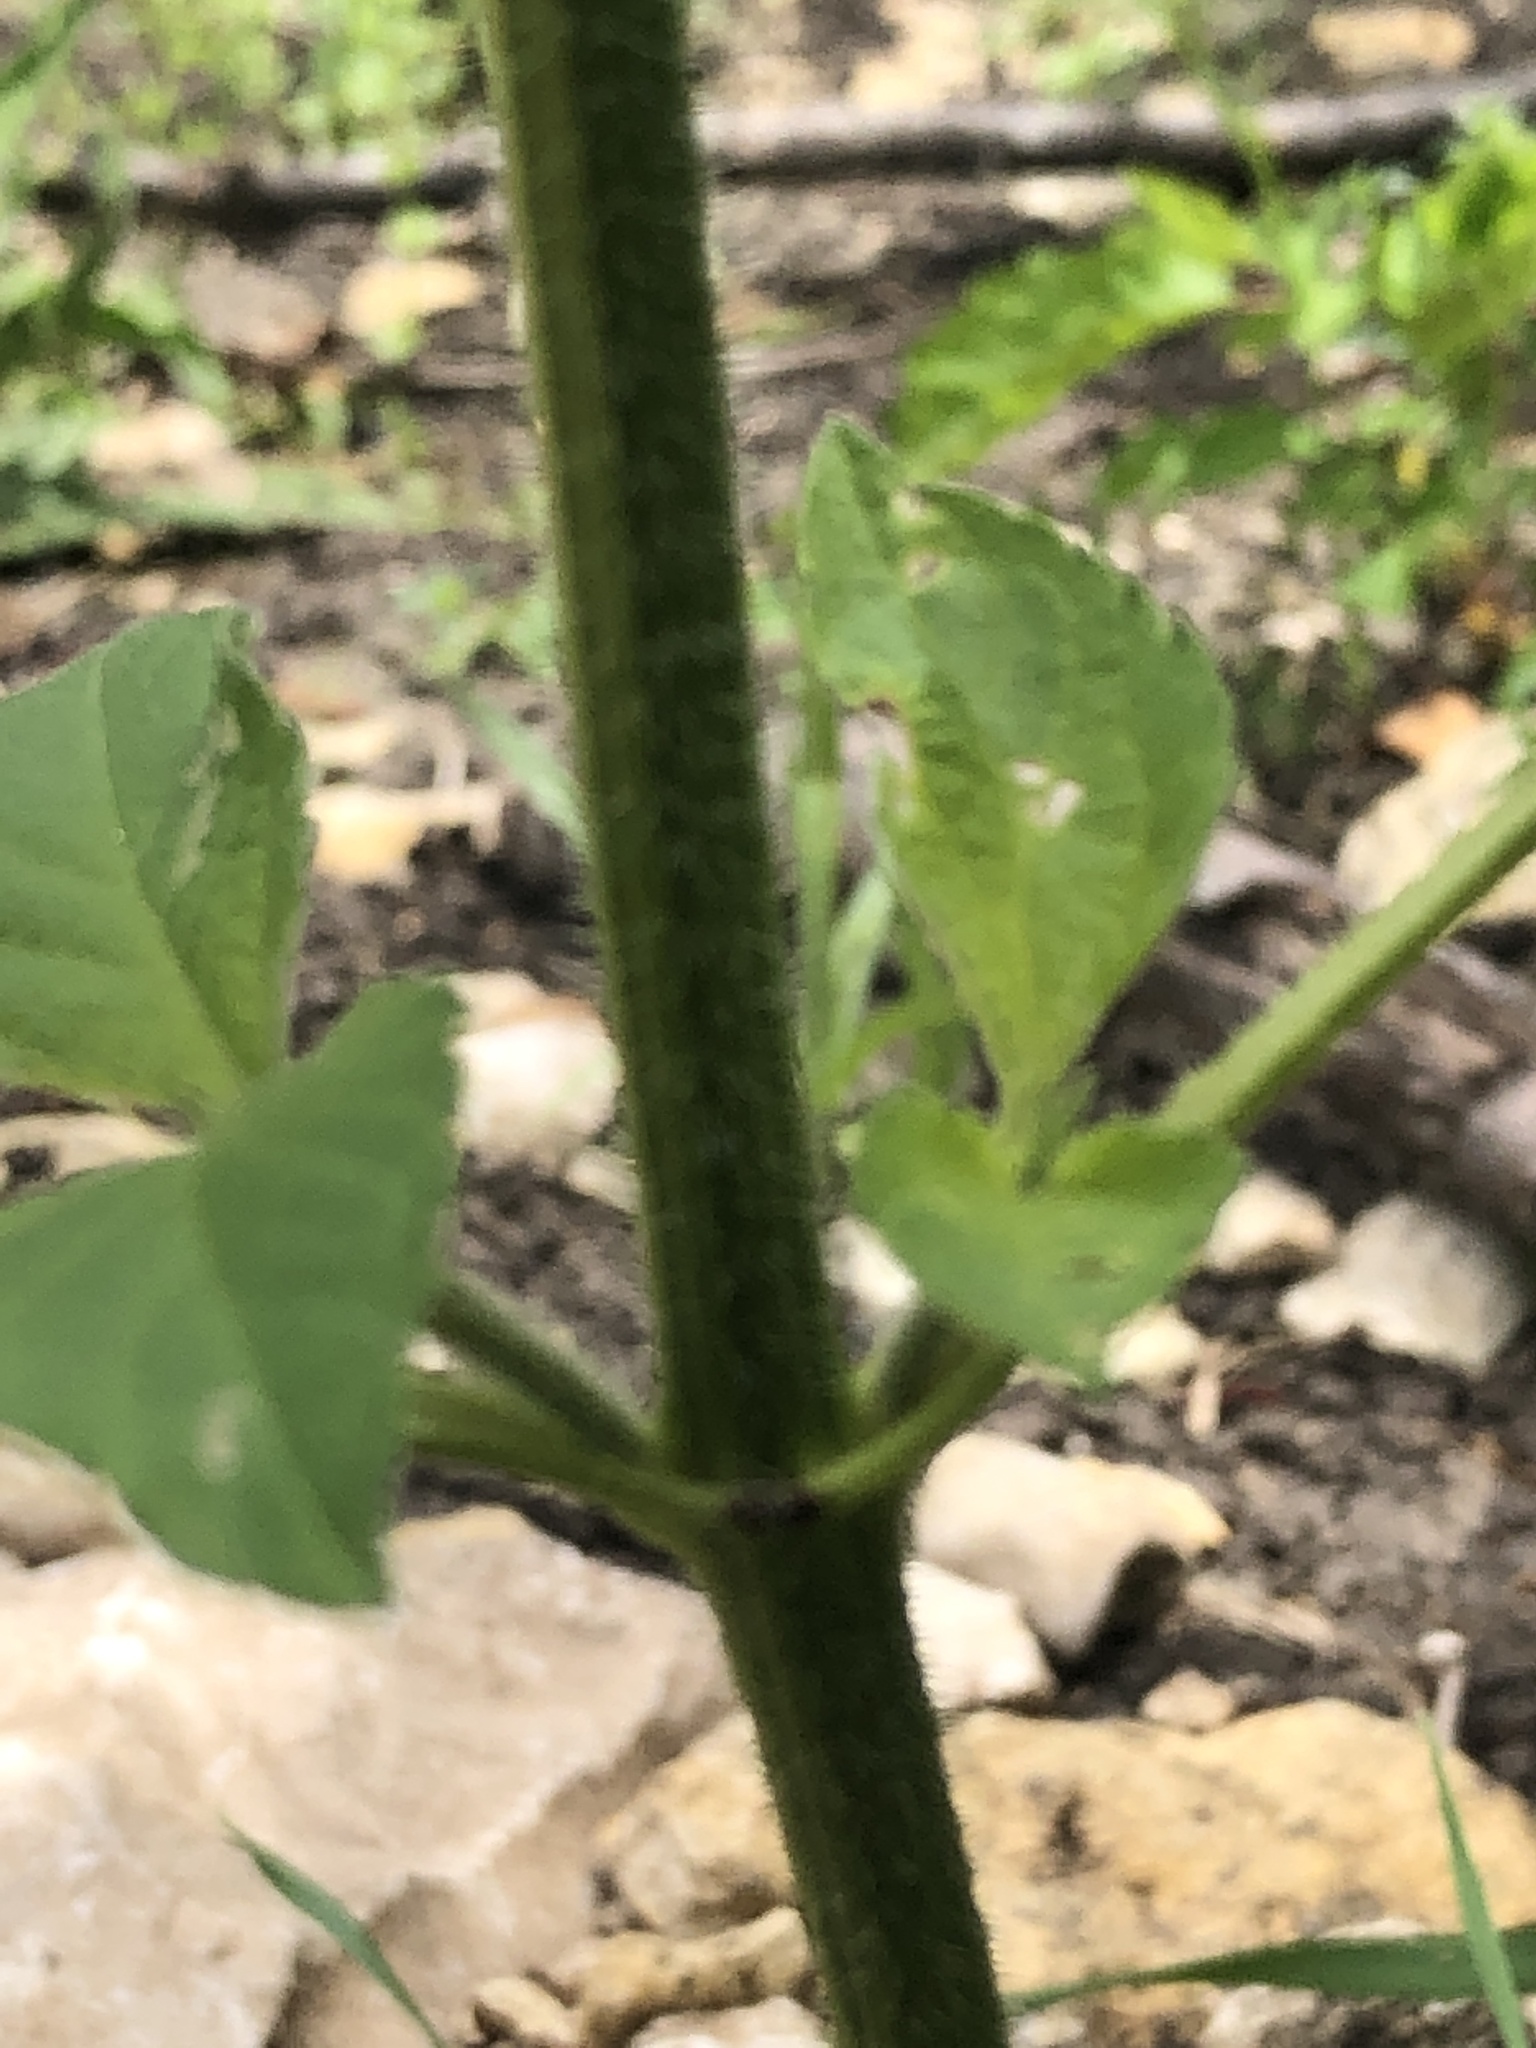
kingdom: Plantae
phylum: Tracheophyta
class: Magnoliopsida
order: Asterales
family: Asteraceae
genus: Ambrosia
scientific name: Ambrosia trifida
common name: Giant ragweed
